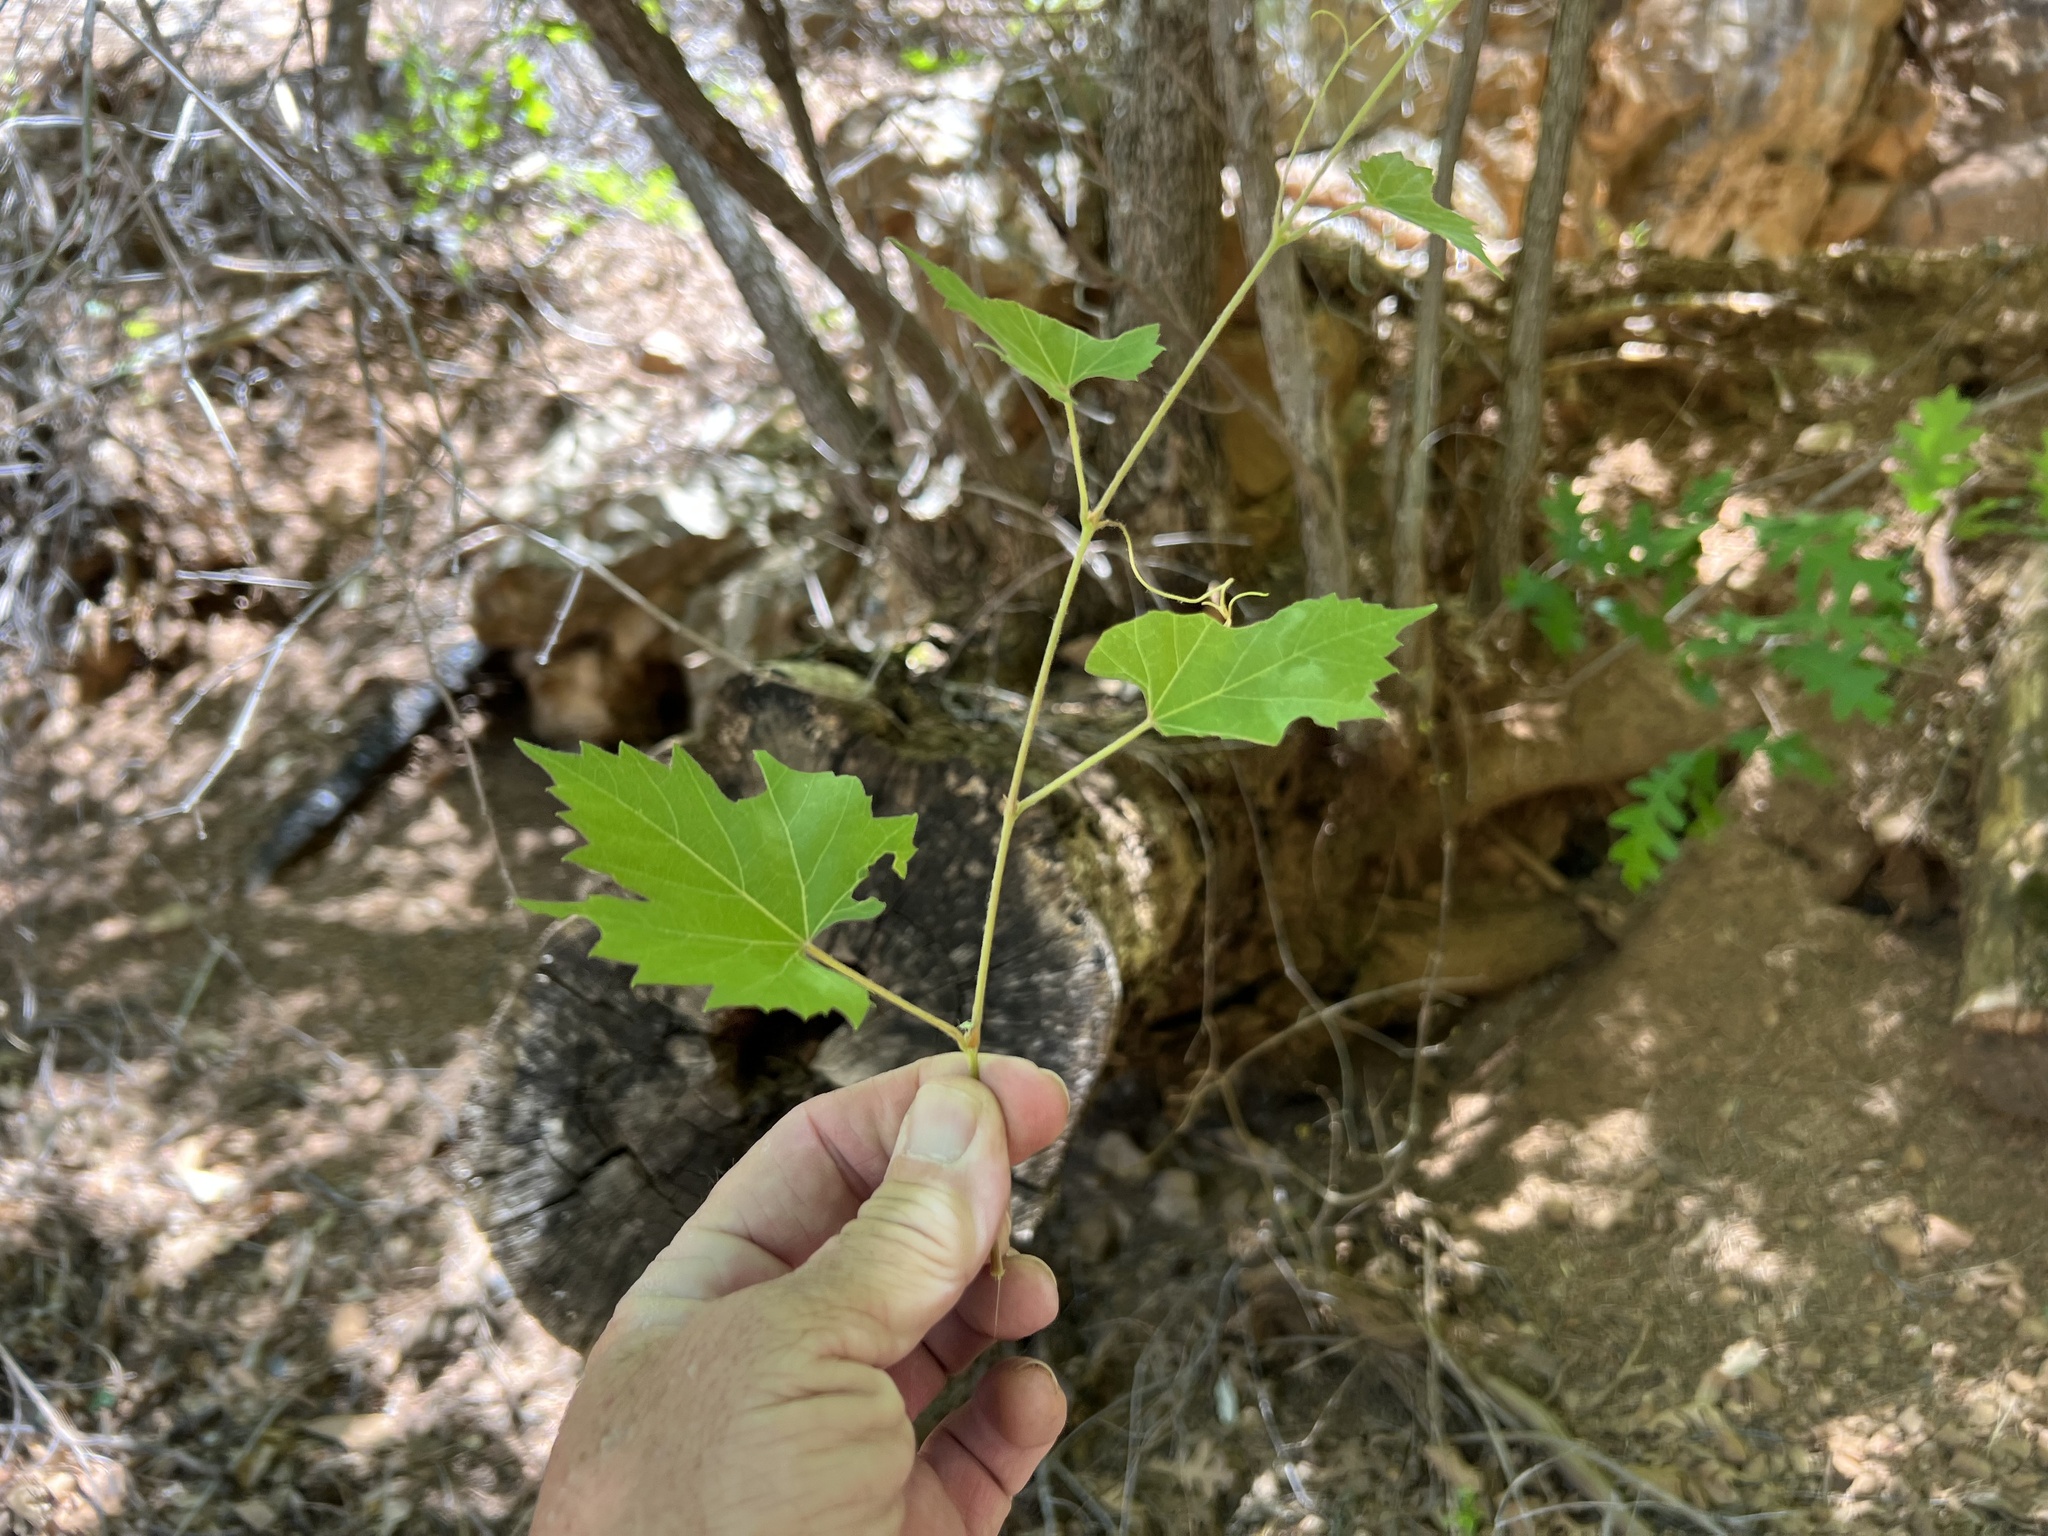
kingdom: Plantae
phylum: Tracheophyta
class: Magnoliopsida
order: Vitales
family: Vitaceae
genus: Vitis
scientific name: Vitis arizonica
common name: Canyon grape
